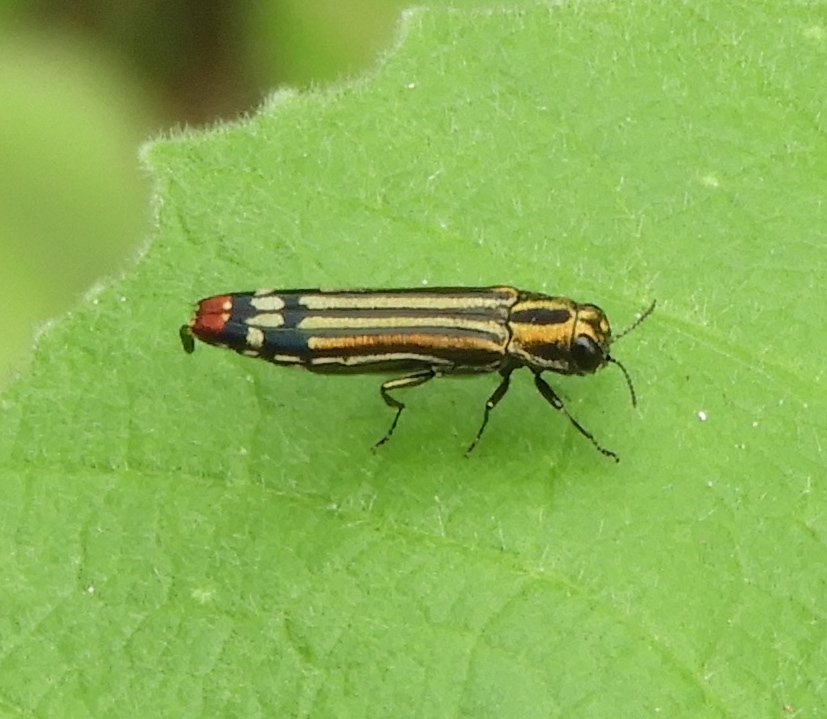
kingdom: Animalia
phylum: Arthropoda
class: Insecta
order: Coleoptera
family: Buprestidae
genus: Agrilus
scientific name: Agrilus catherinae
